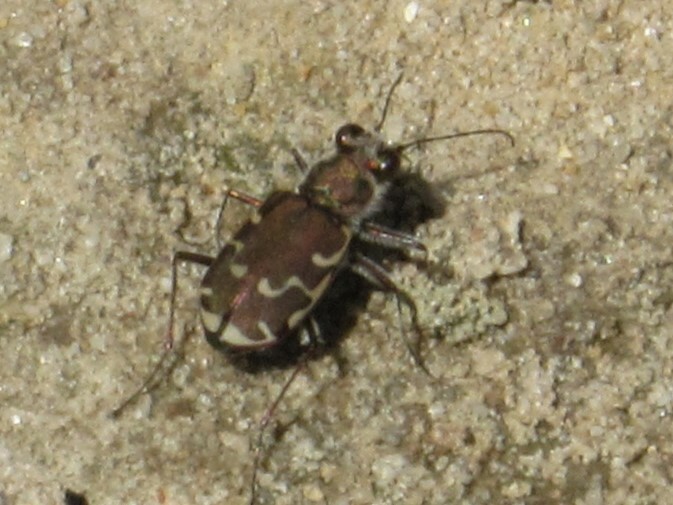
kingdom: Animalia
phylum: Arthropoda
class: Insecta
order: Coleoptera
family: Carabidae
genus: Cicindela
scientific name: Cicindela repanda
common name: Bronzed tiger beetle
